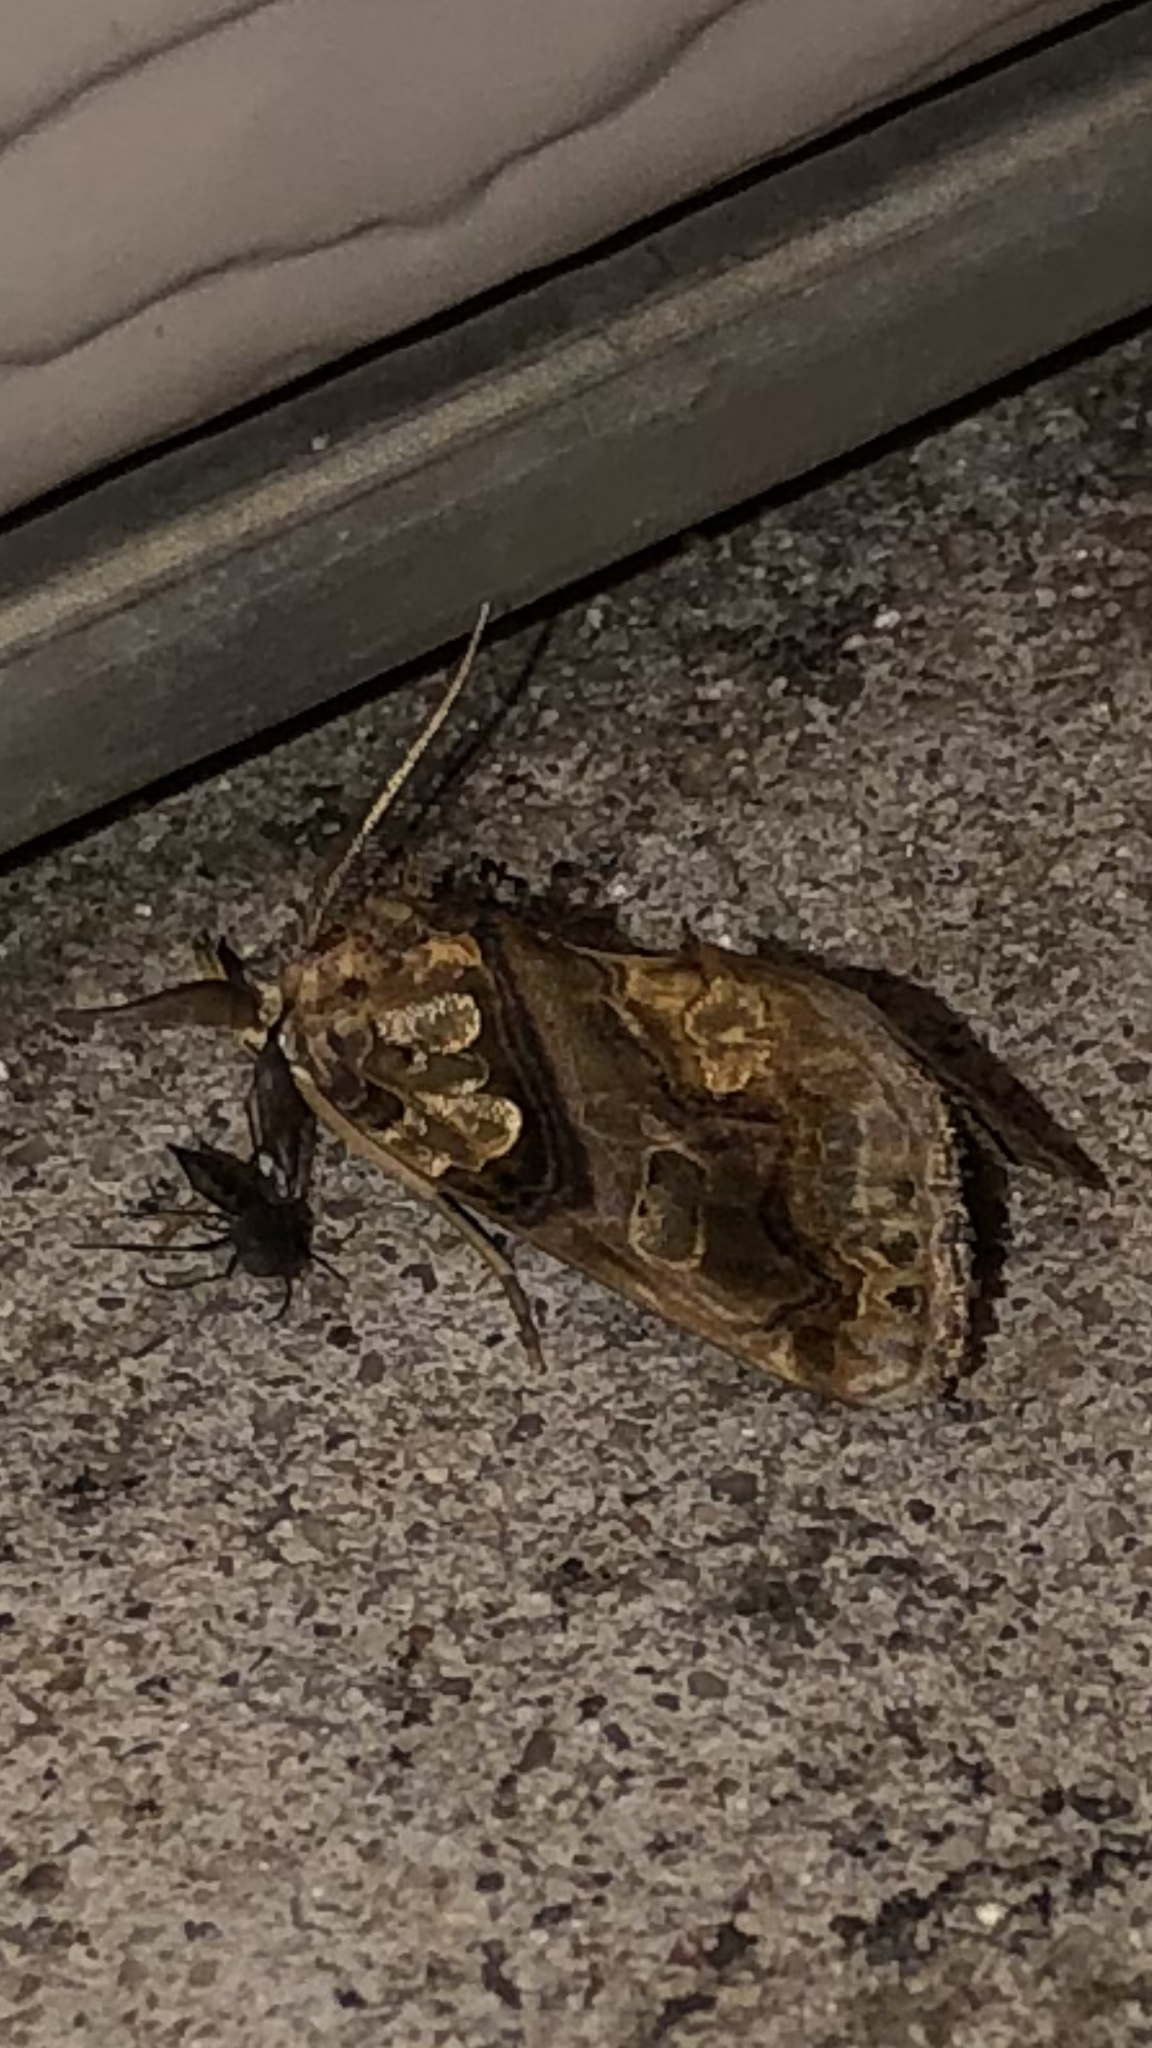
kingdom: Animalia
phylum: Arthropoda
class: Insecta
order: Lepidoptera
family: Erebidae
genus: Plusiodonta
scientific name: Plusiodonta compressipalpis
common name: Moonseed moth
